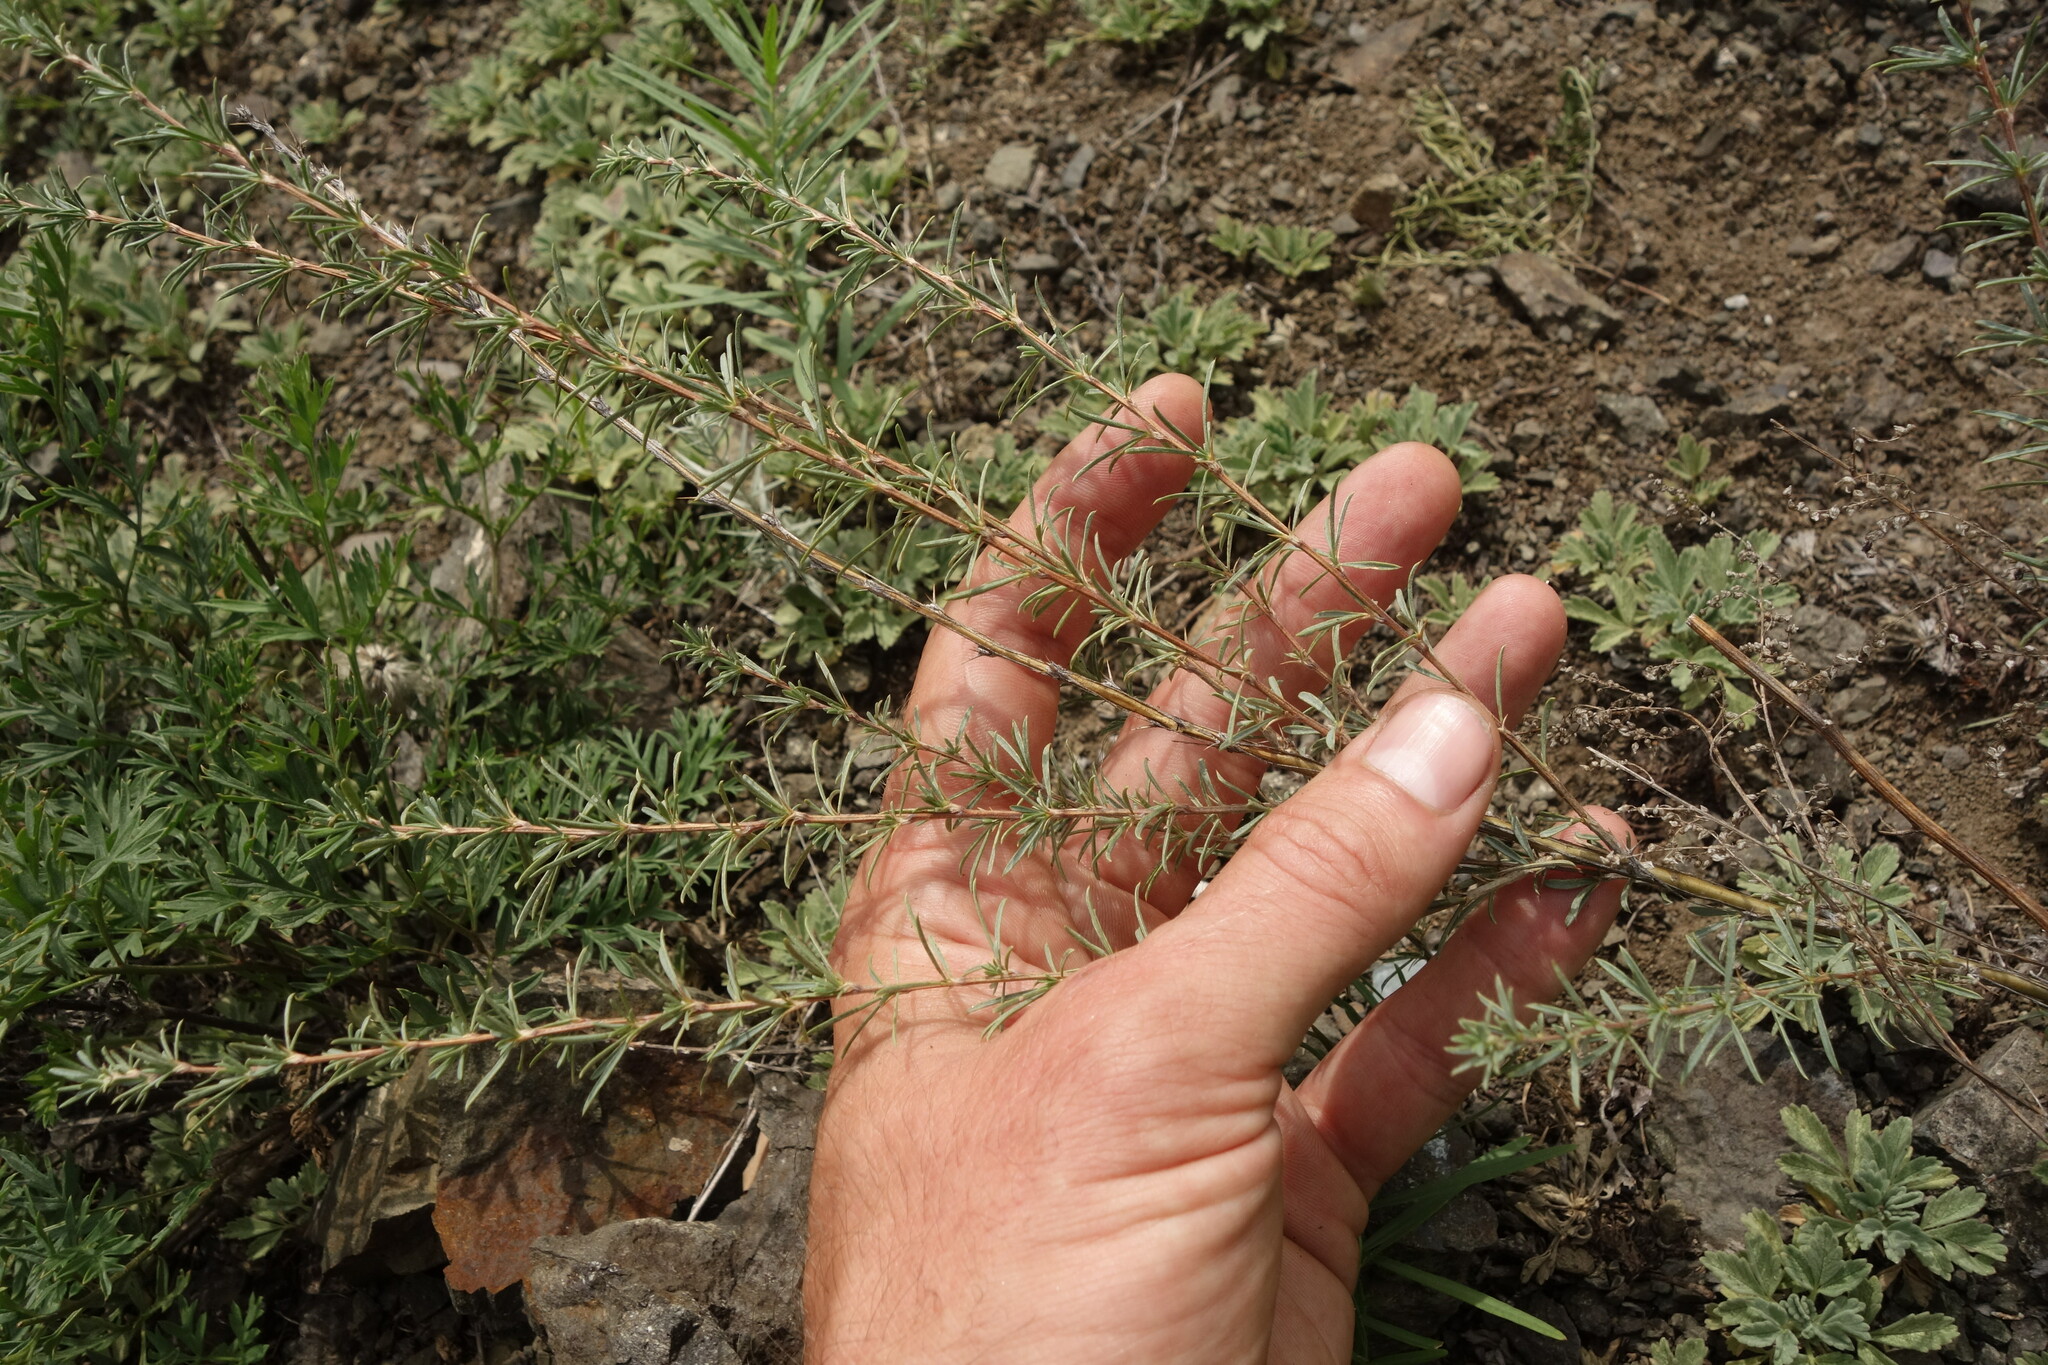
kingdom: Plantae
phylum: Tracheophyta
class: Magnoliopsida
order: Fabales
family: Fabaceae
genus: Caragana
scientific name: Caragana pygmaea
